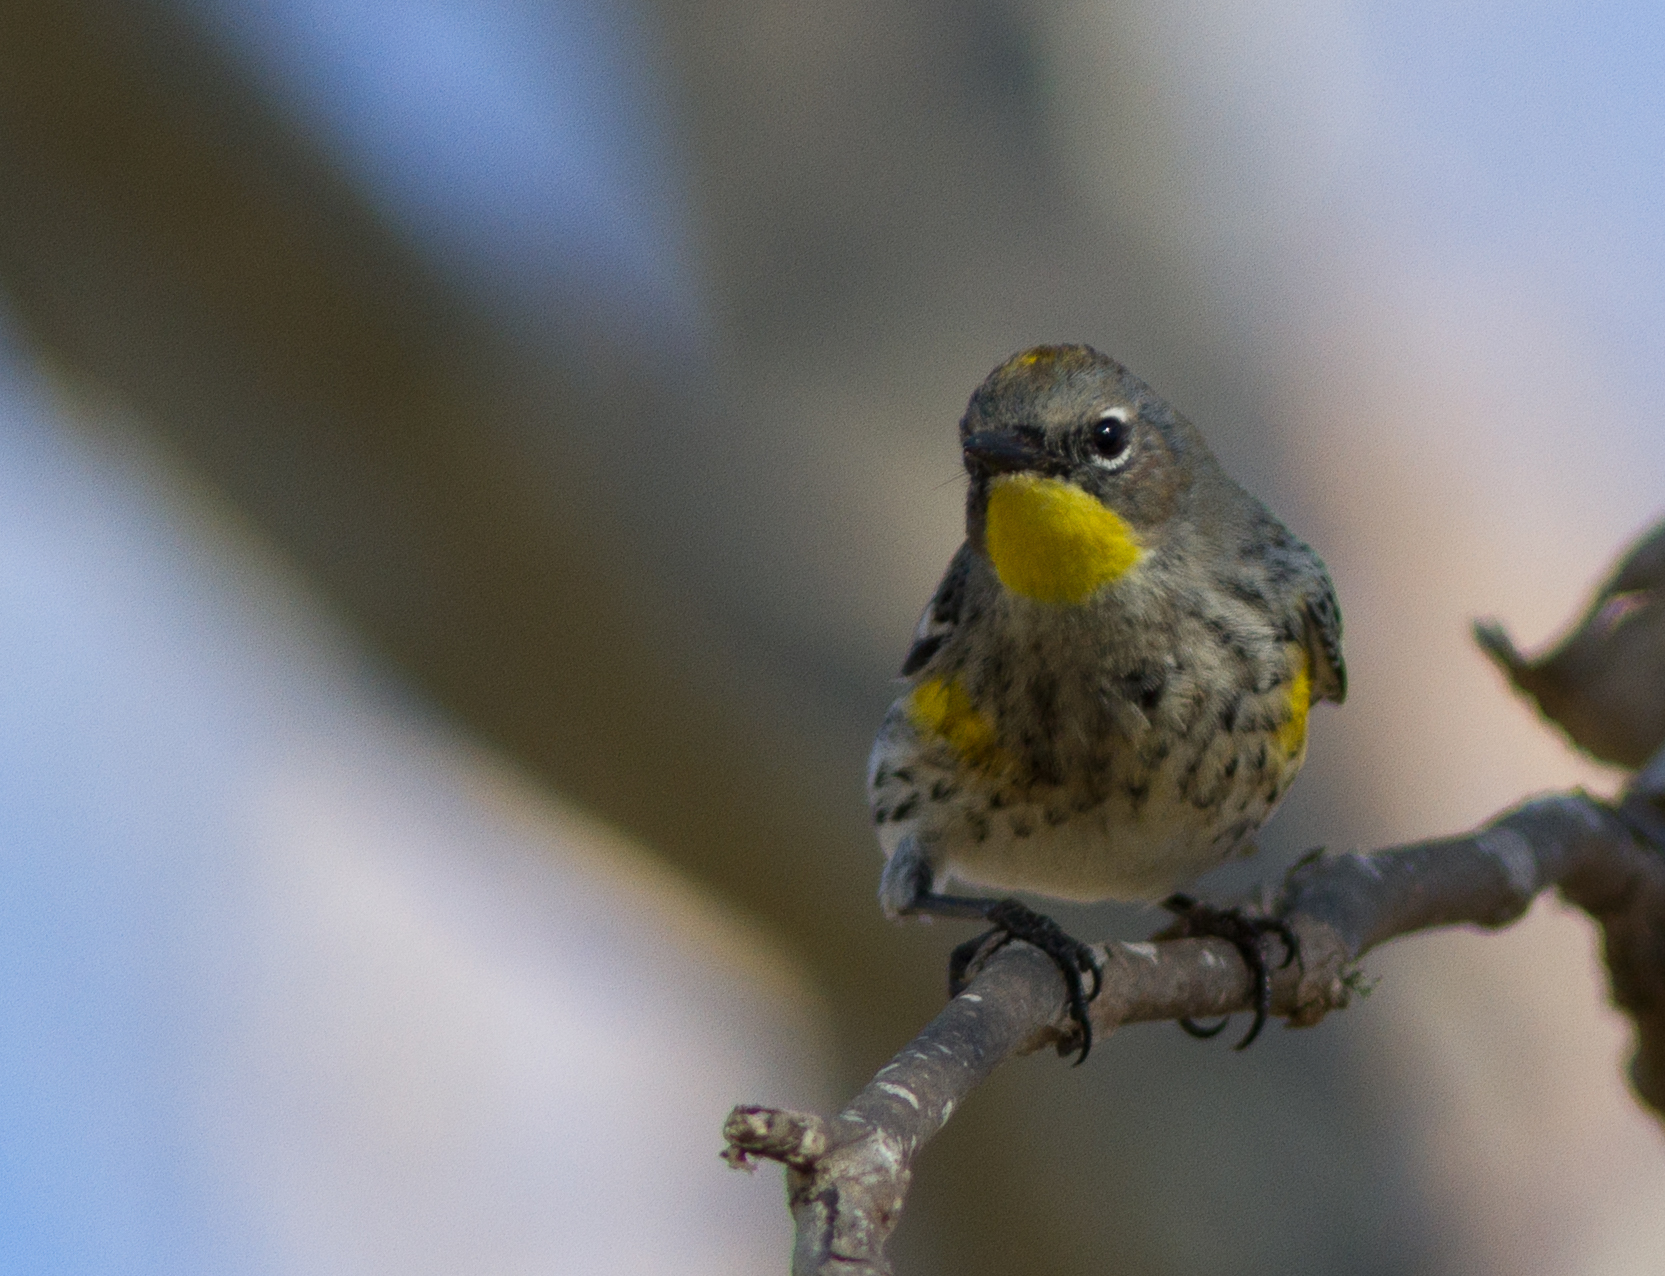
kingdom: Animalia
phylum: Chordata
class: Aves
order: Passeriformes
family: Parulidae
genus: Setophaga
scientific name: Setophaga auduboni
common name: Audubon's warbler
